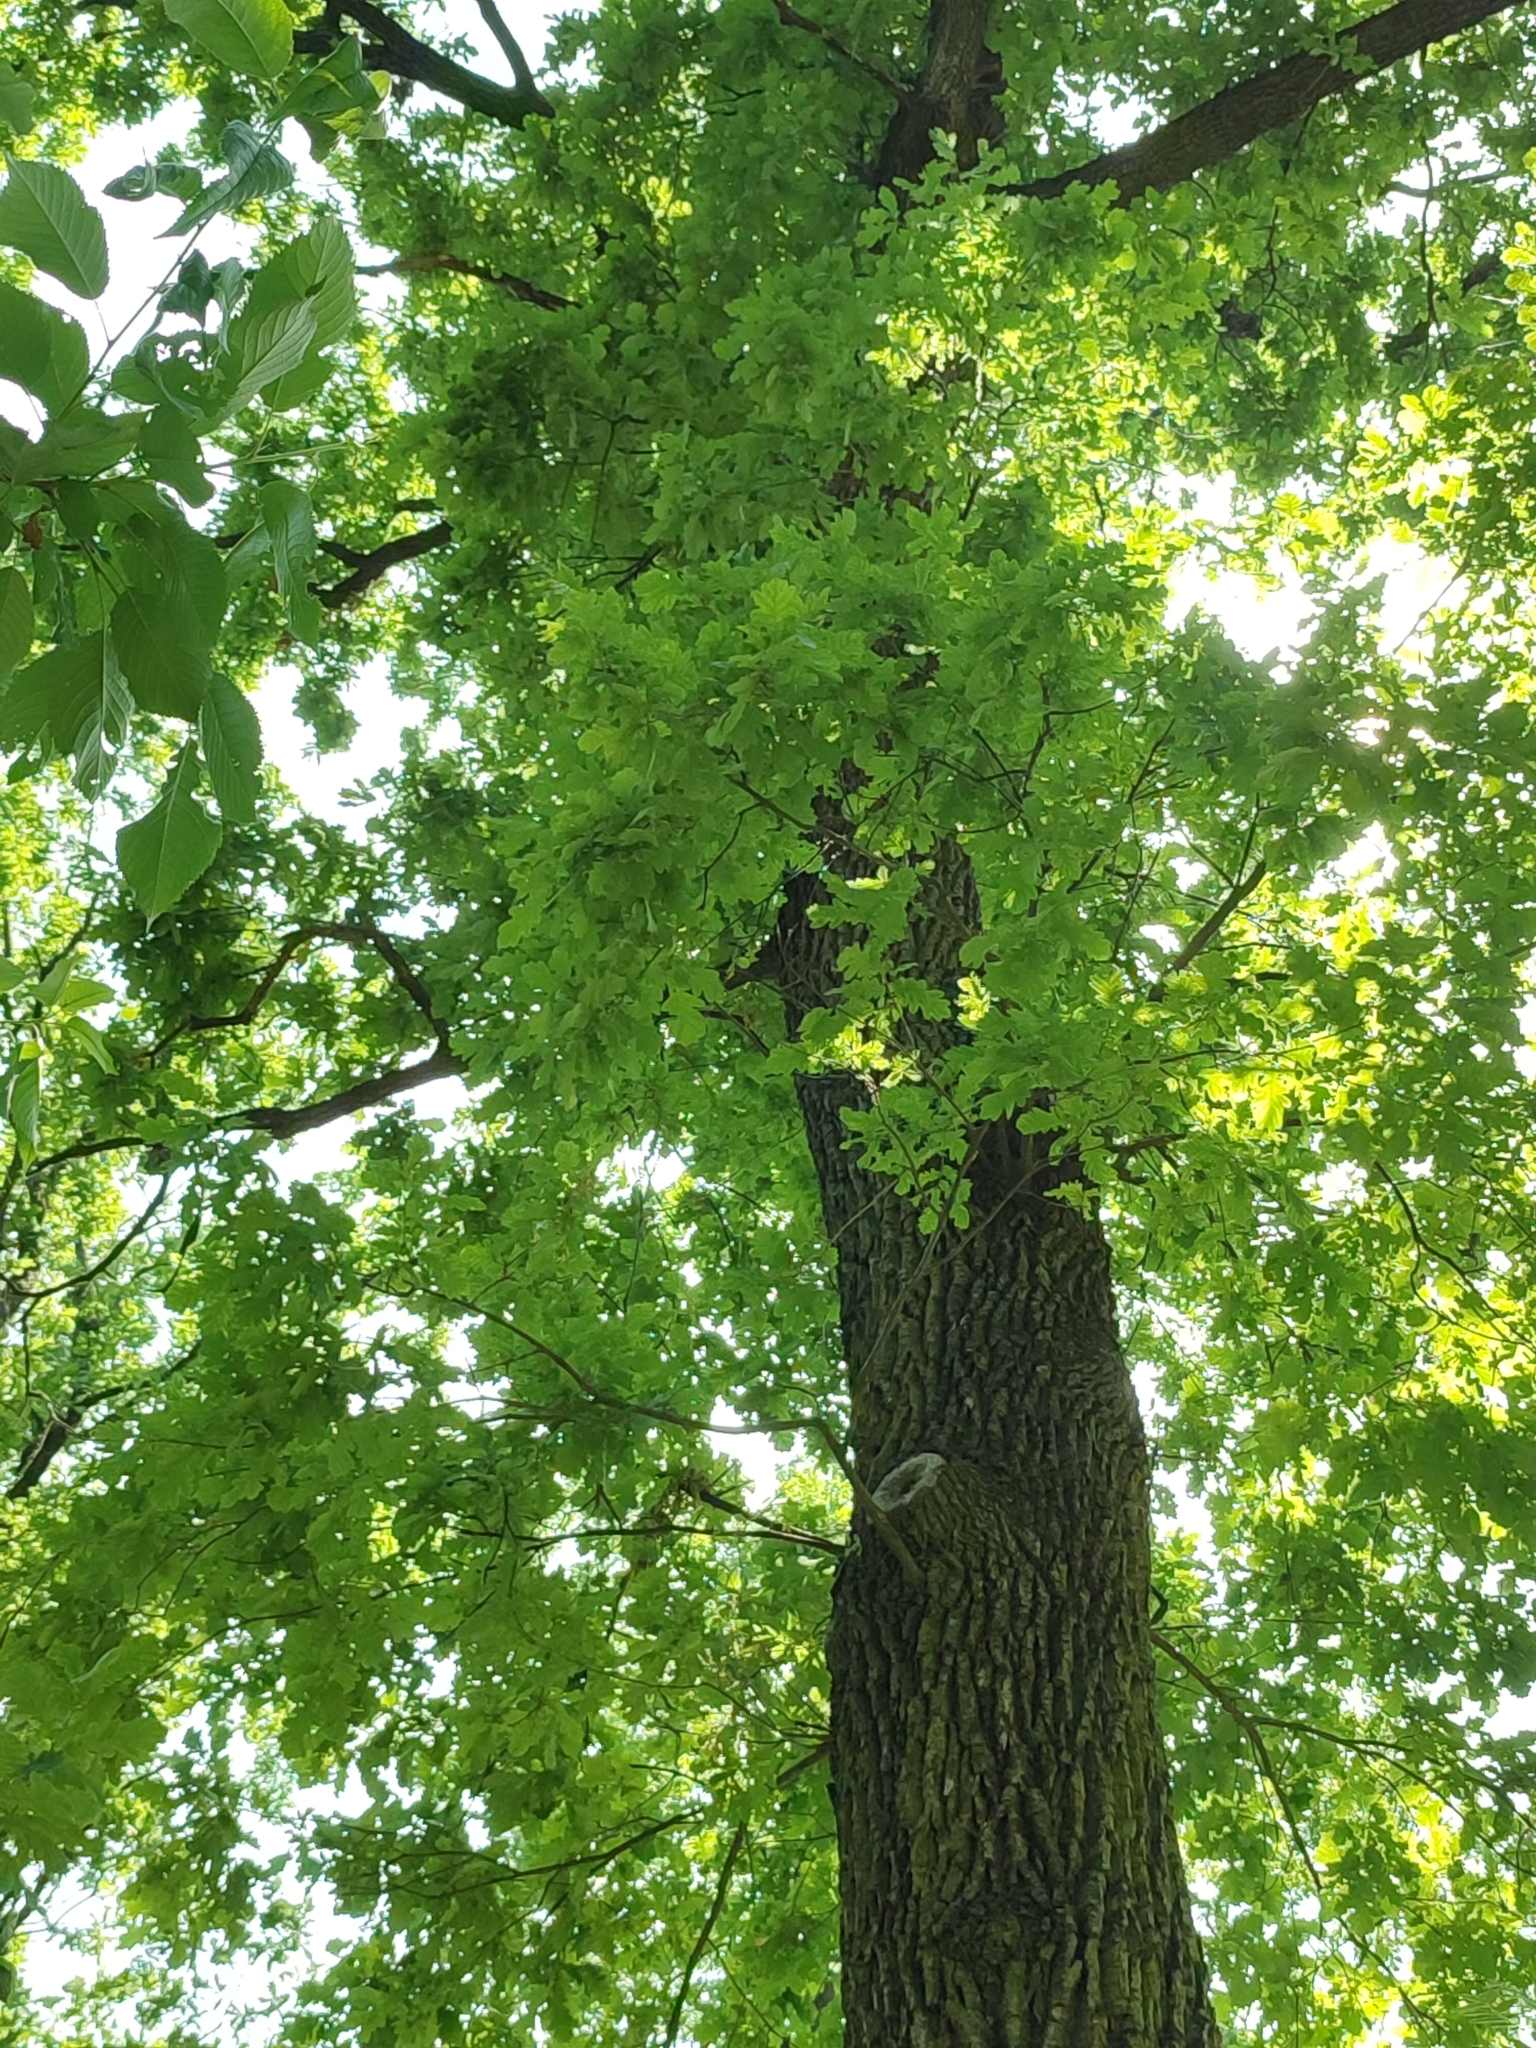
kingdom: Plantae
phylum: Tracheophyta
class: Magnoliopsida
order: Fagales
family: Fagaceae
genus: Quercus
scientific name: Quercus robur
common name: Pedunculate oak
